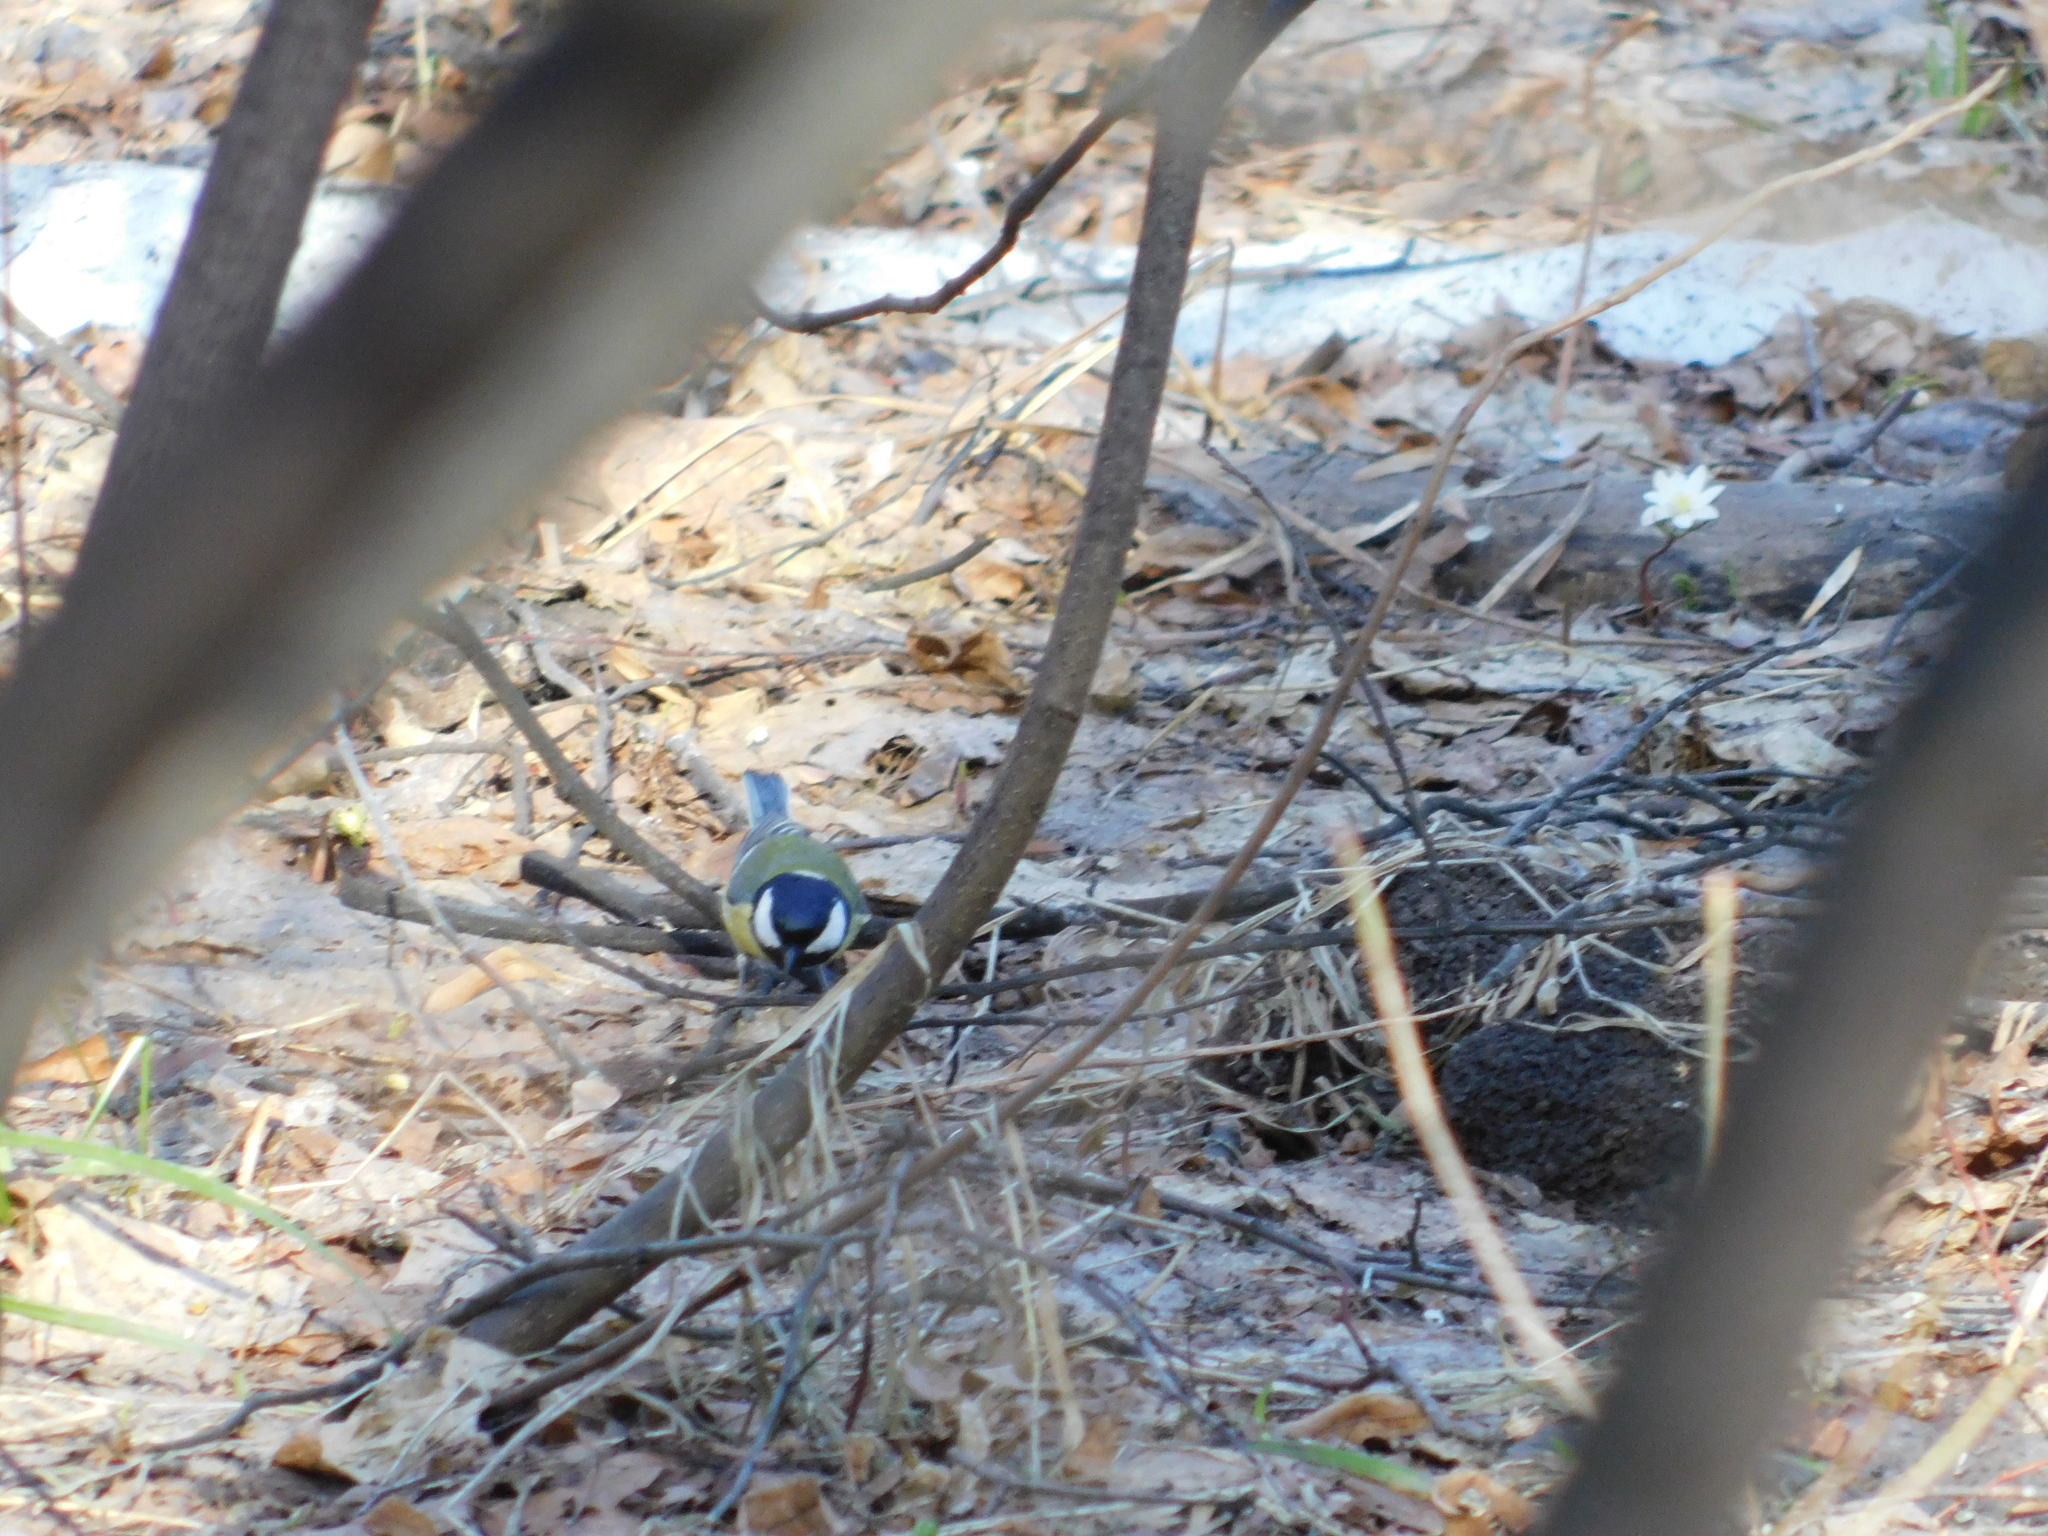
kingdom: Animalia
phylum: Chordata
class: Aves
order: Passeriformes
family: Paridae
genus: Parus
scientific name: Parus major
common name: Great tit
